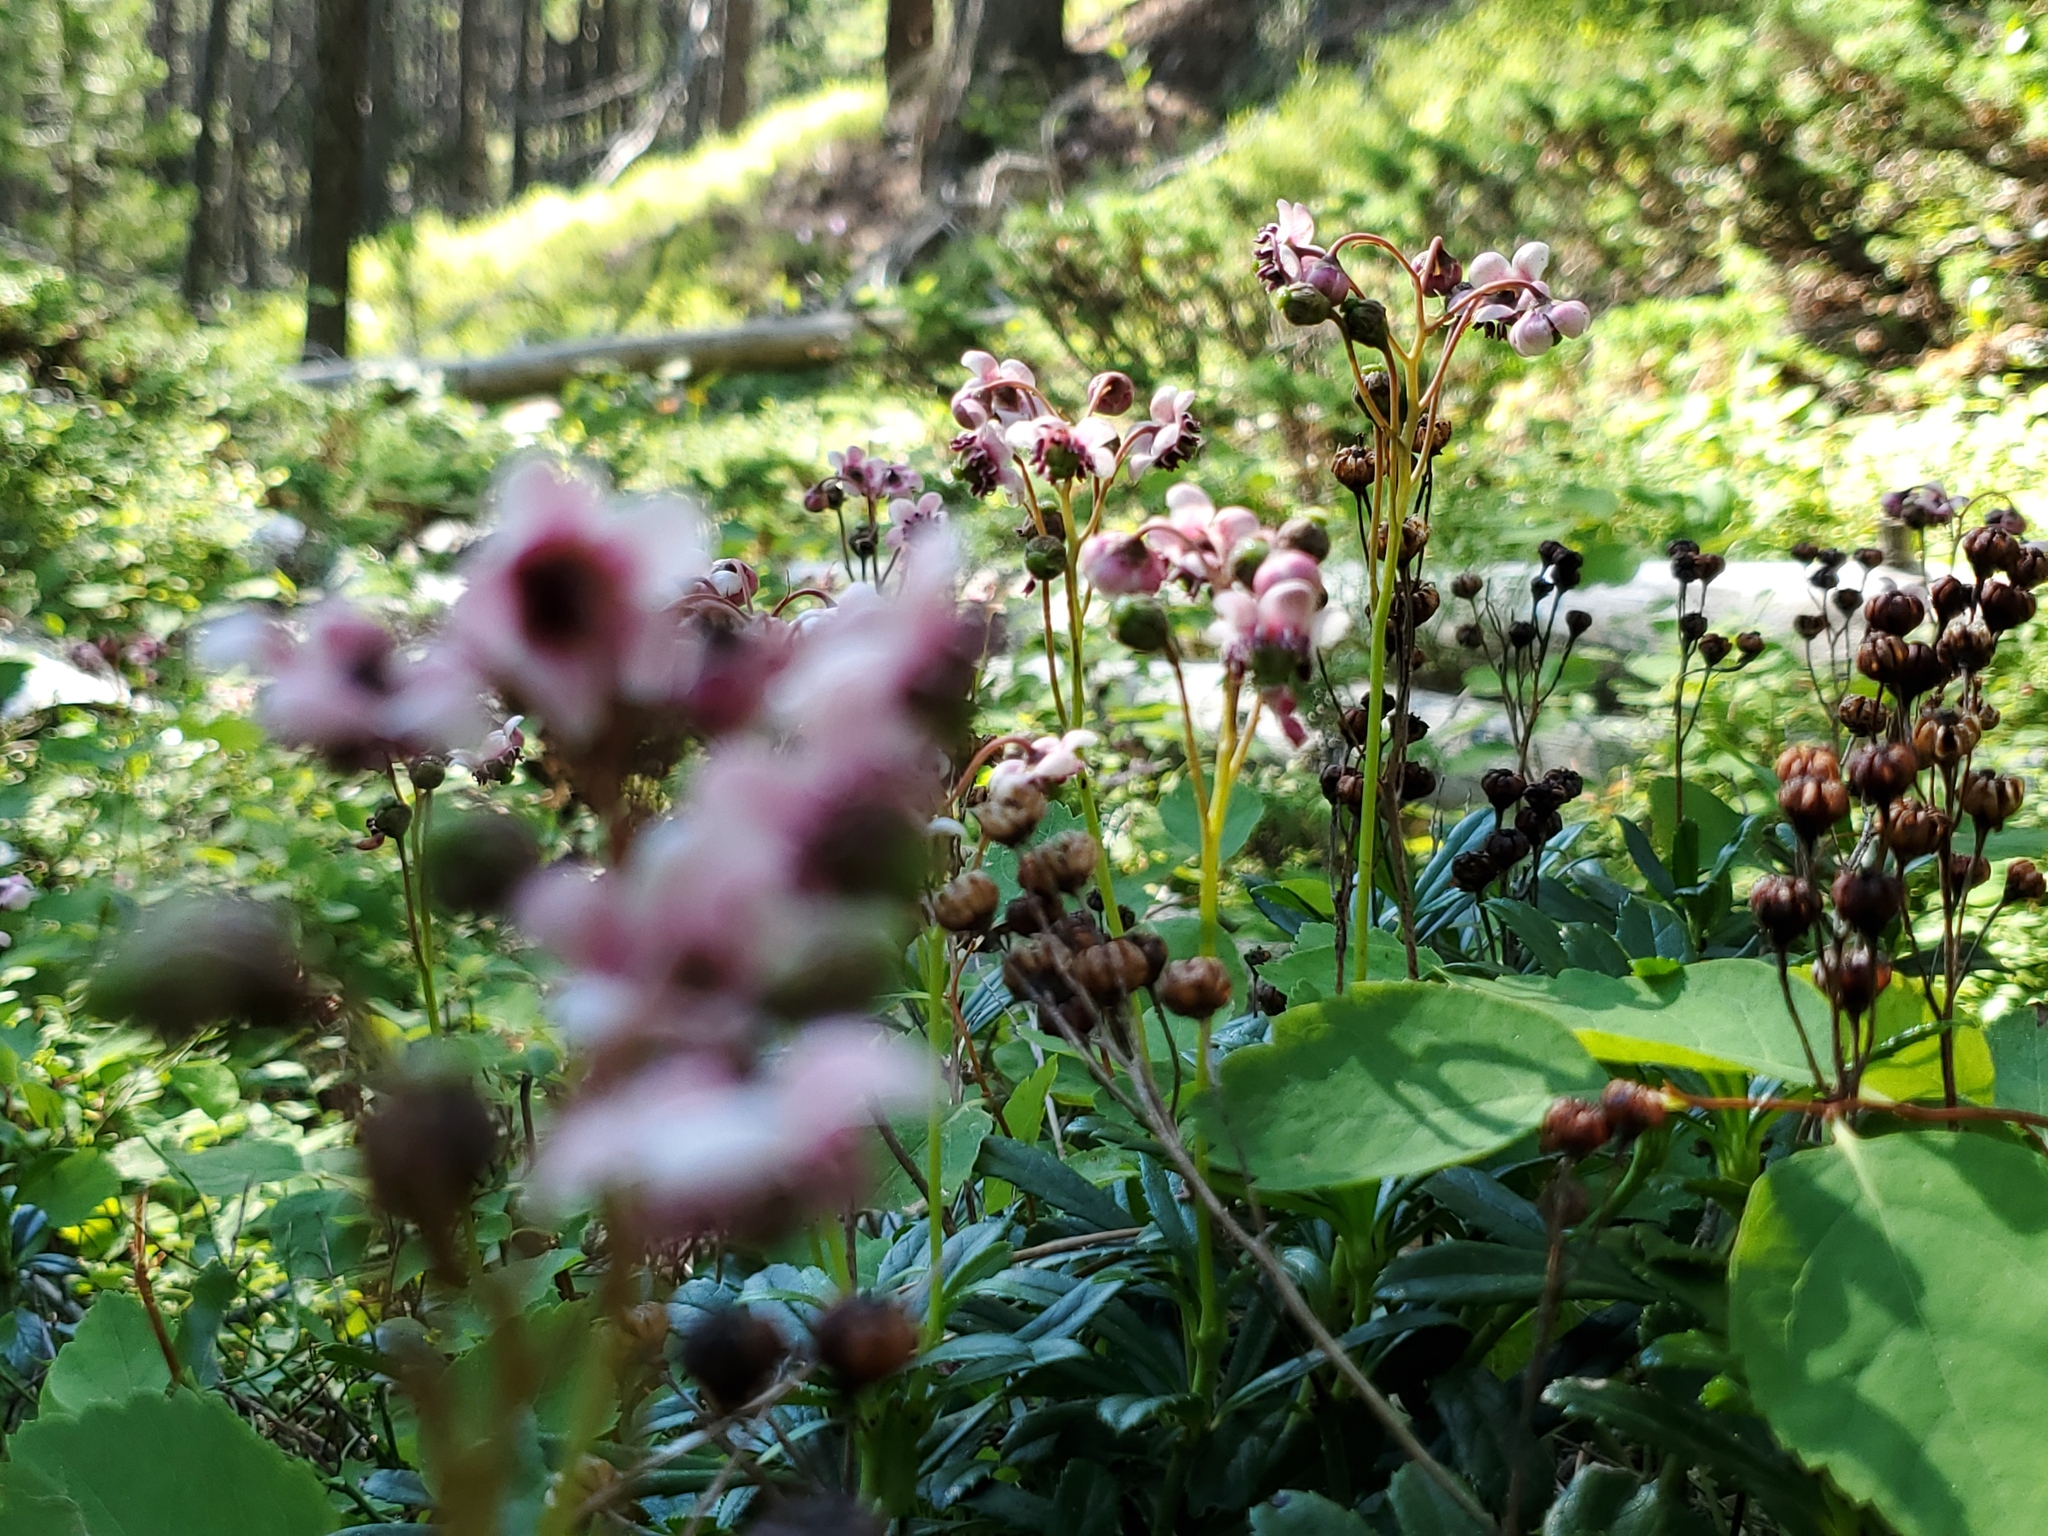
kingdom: Plantae
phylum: Tracheophyta
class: Magnoliopsida
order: Ericales
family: Ericaceae
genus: Chimaphila
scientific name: Chimaphila umbellata
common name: Pipsissewa
